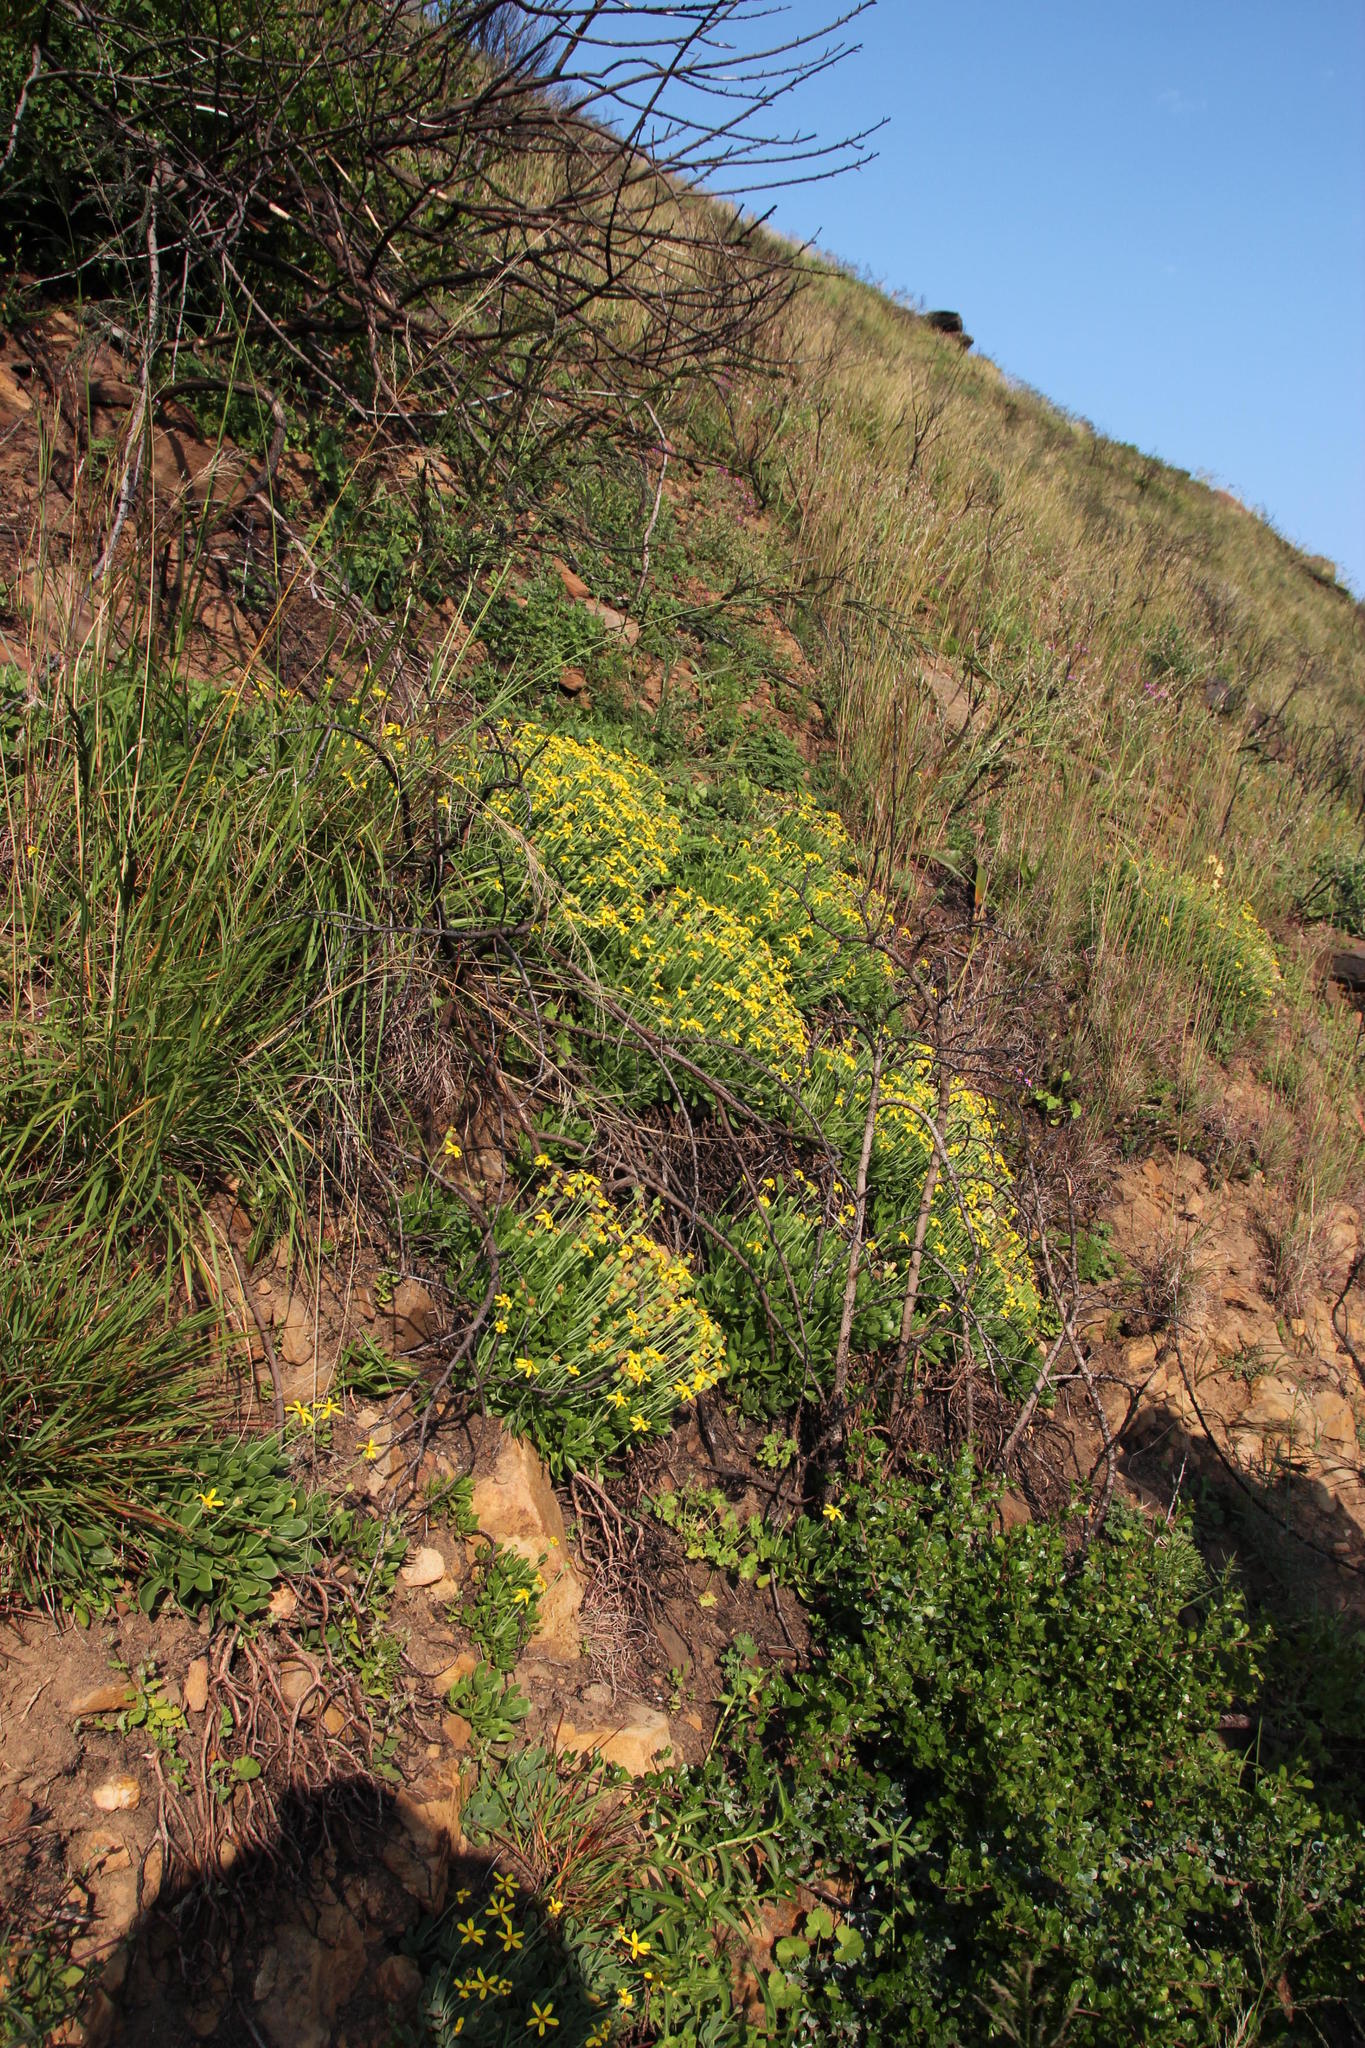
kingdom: Plantae
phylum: Tracheophyta
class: Magnoliopsida
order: Asterales
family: Asteraceae
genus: Othonna
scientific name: Othonna arborescens
